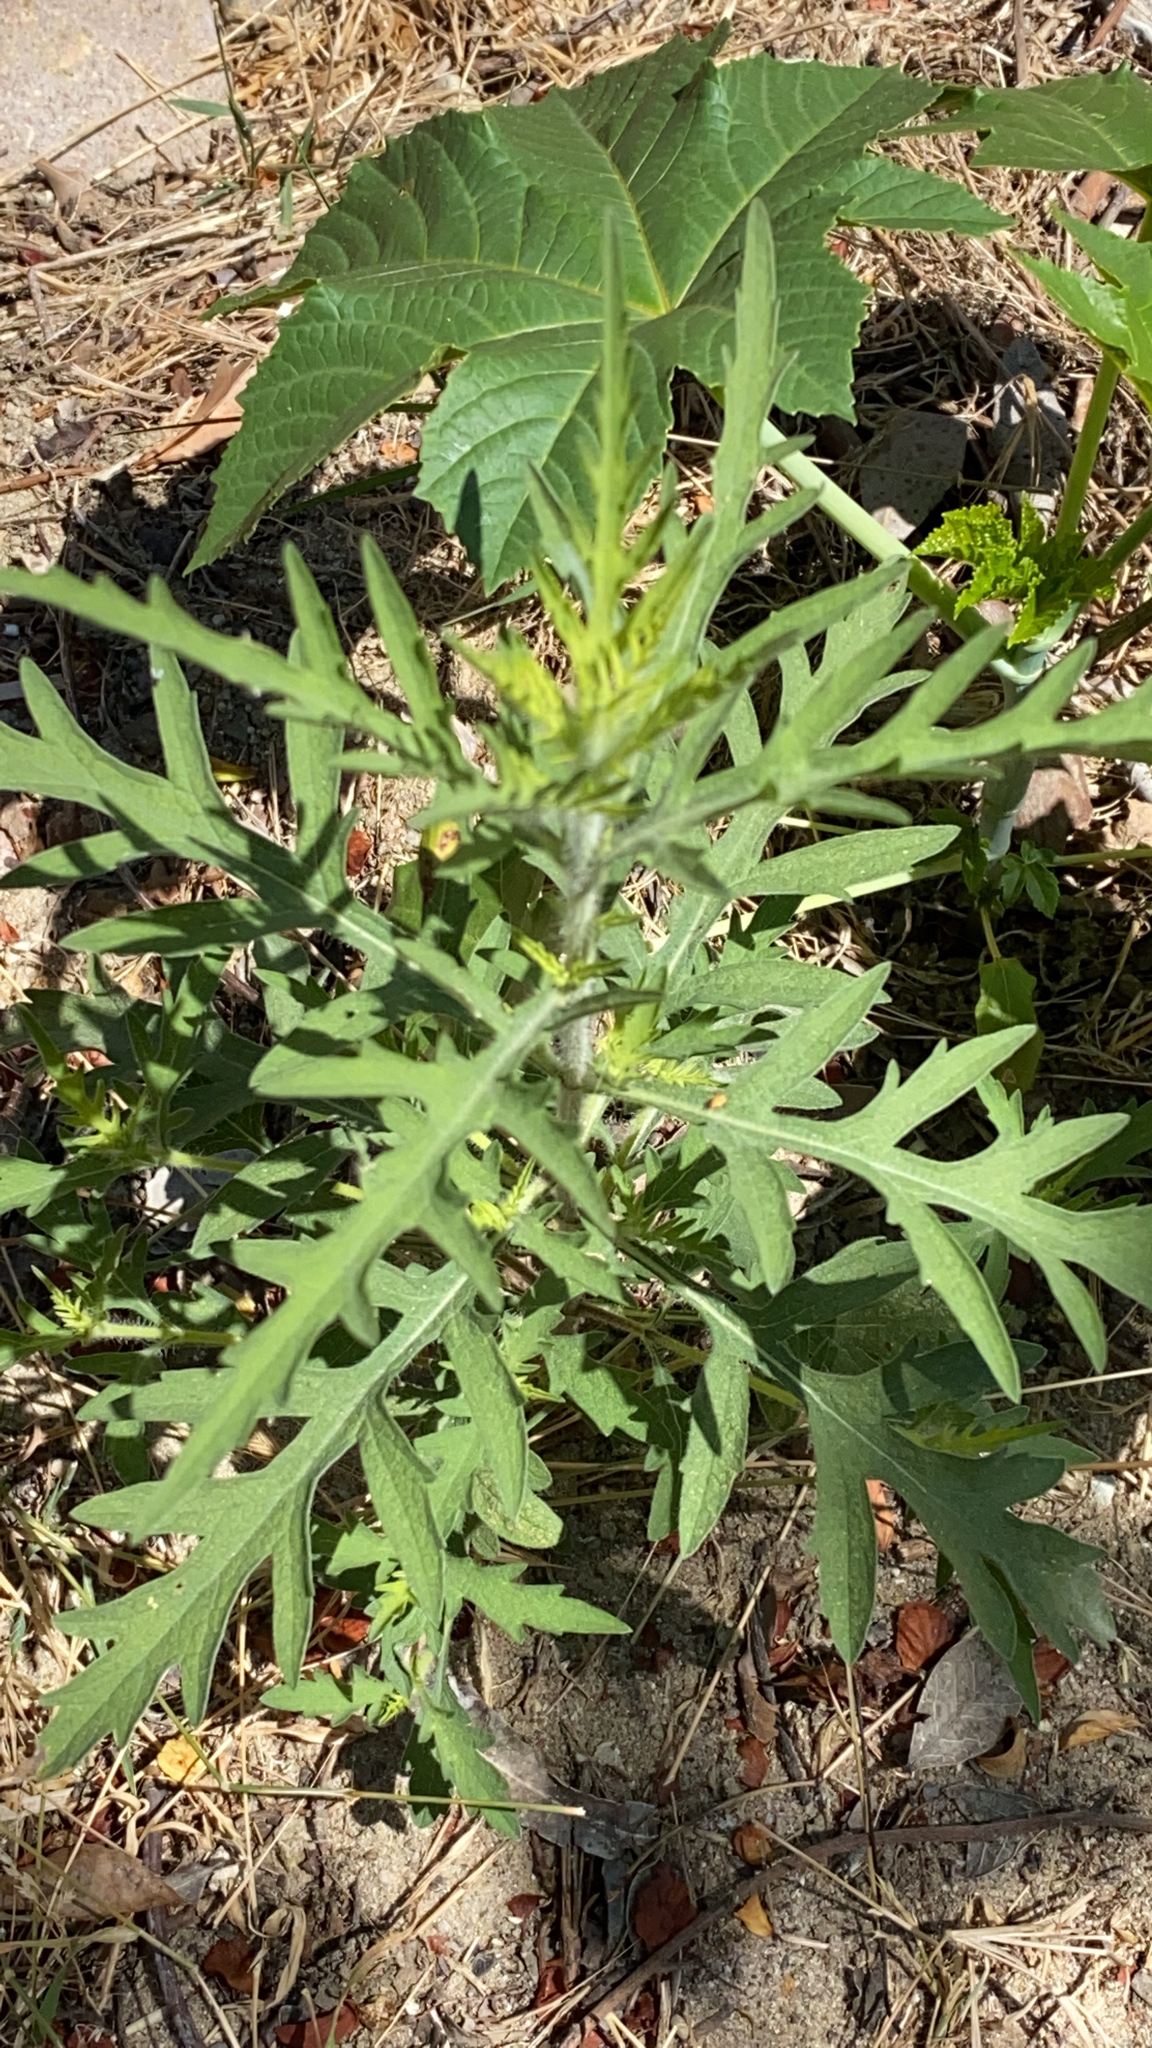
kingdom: Plantae
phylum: Tracheophyta
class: Magnoliopsida
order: Asterales
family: Asteraceae
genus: Ambrosia
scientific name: Ambrosia psilostachya
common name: Perennial ragweed
